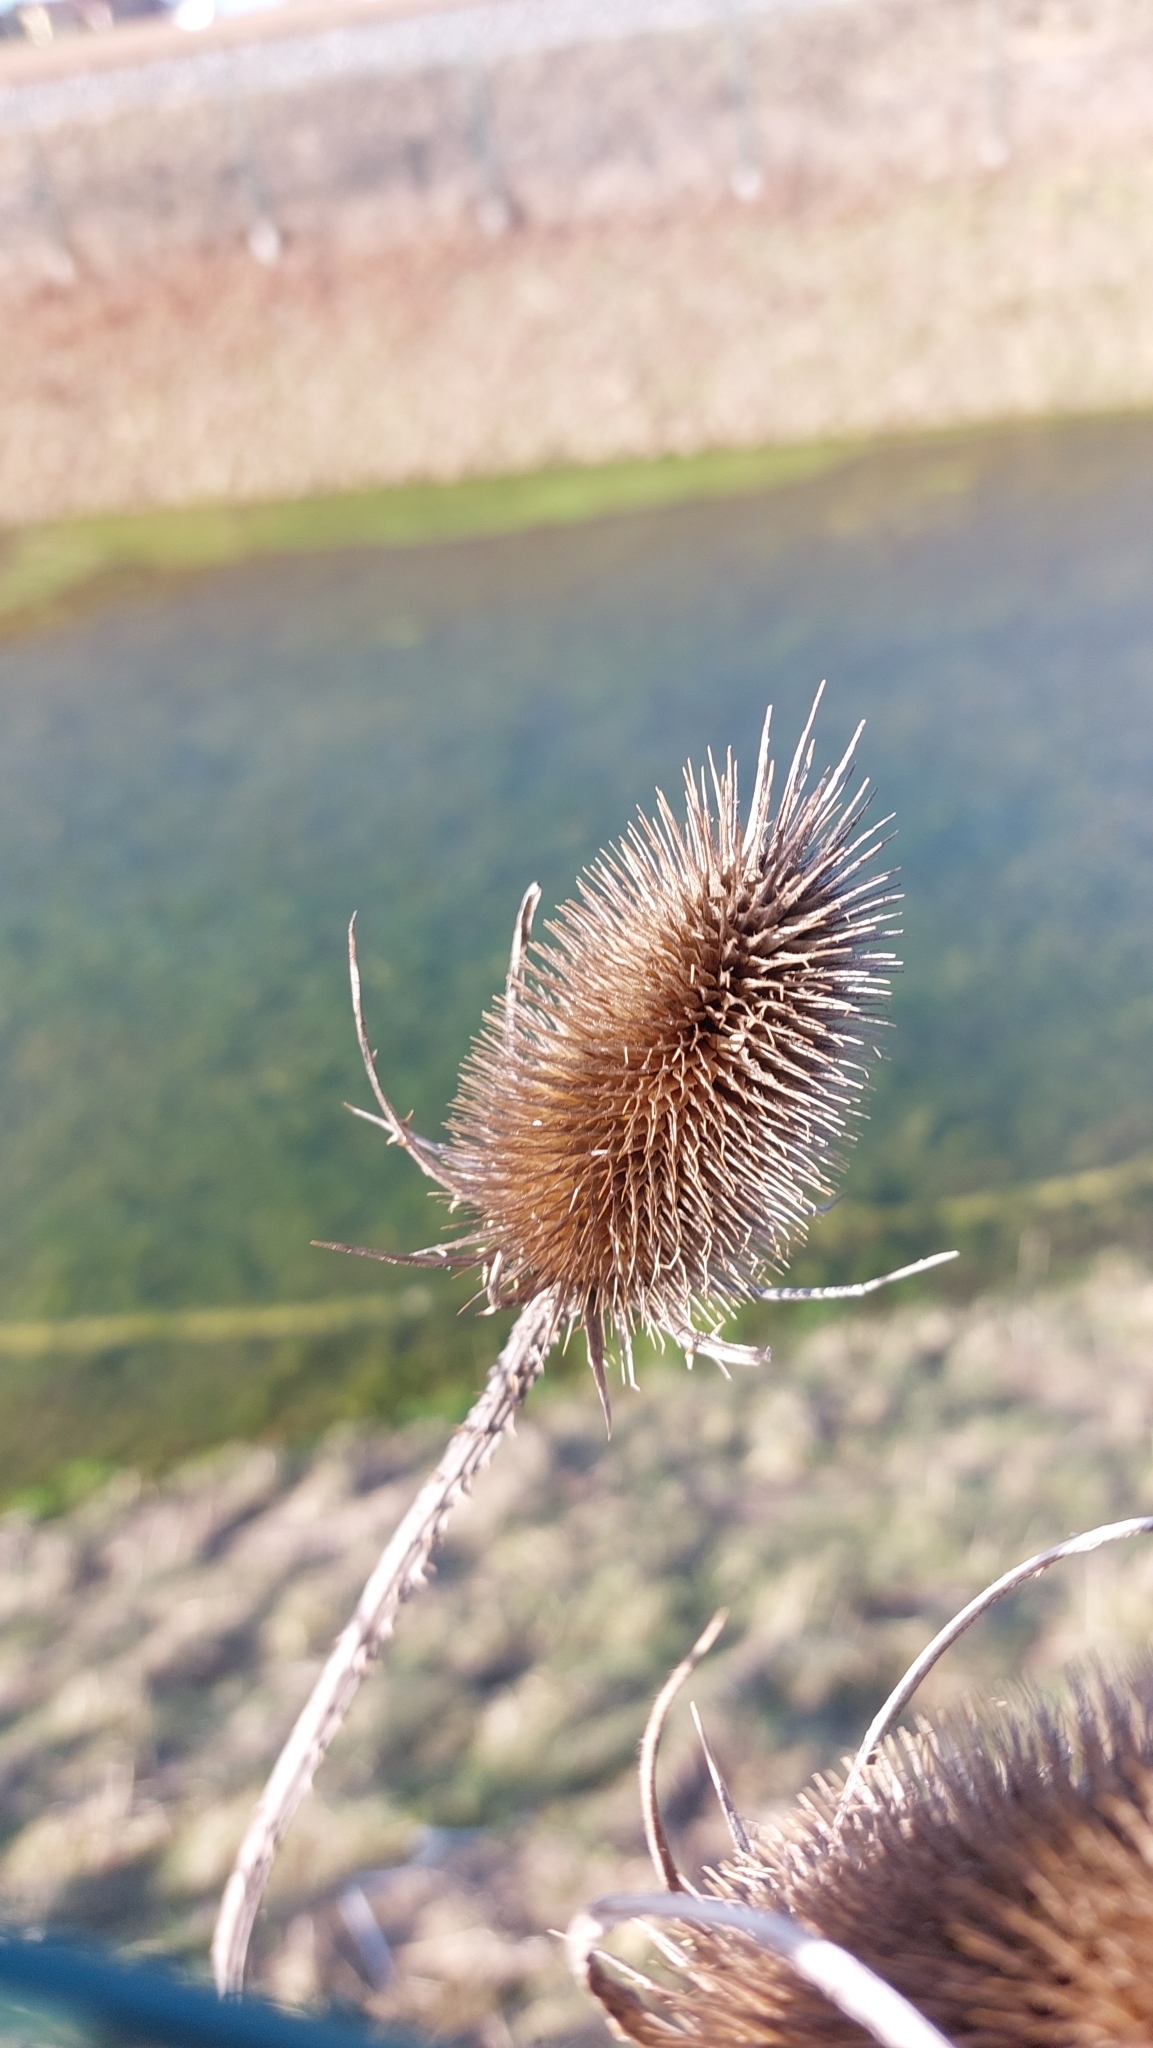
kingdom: Plantae
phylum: Tracheophyta
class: Magnoliopsida
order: Dipsacales
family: Caprifoliaceae
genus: Dipsacus
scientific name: Dipsacus fullonum
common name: Teasel
